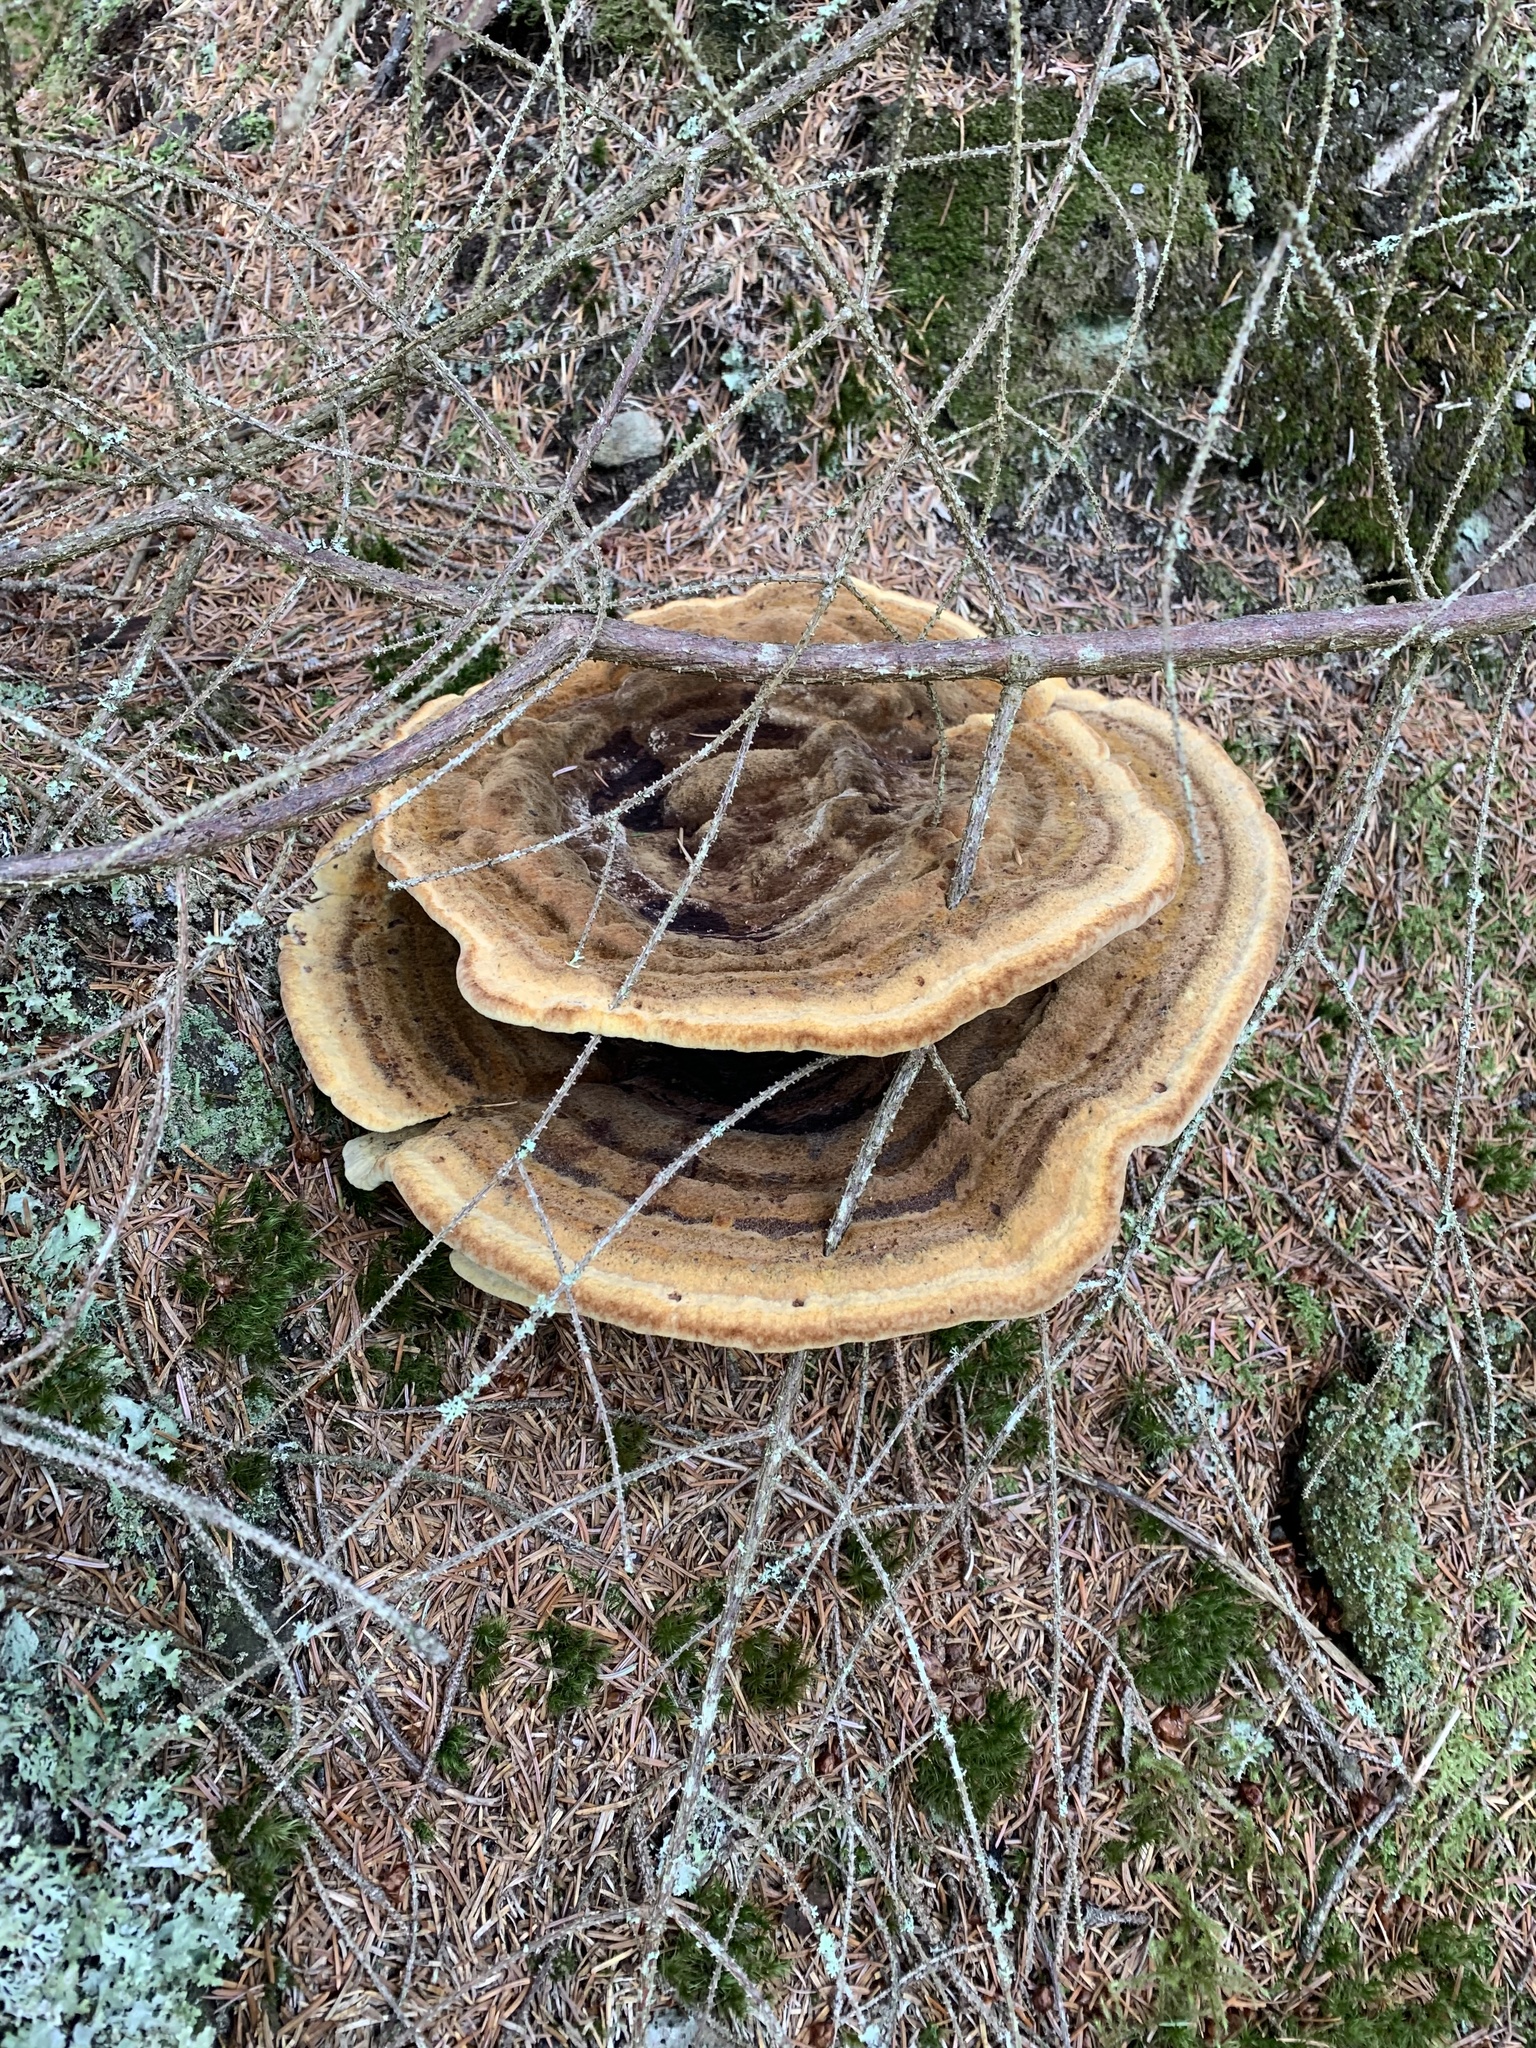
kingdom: Fungi
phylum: Basidiomycota
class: Agaricomycetes
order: Polyporales
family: Laetiporaceae
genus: Phaeolus
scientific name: Phaeolus schweinitzii
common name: Dyer's mazegill
